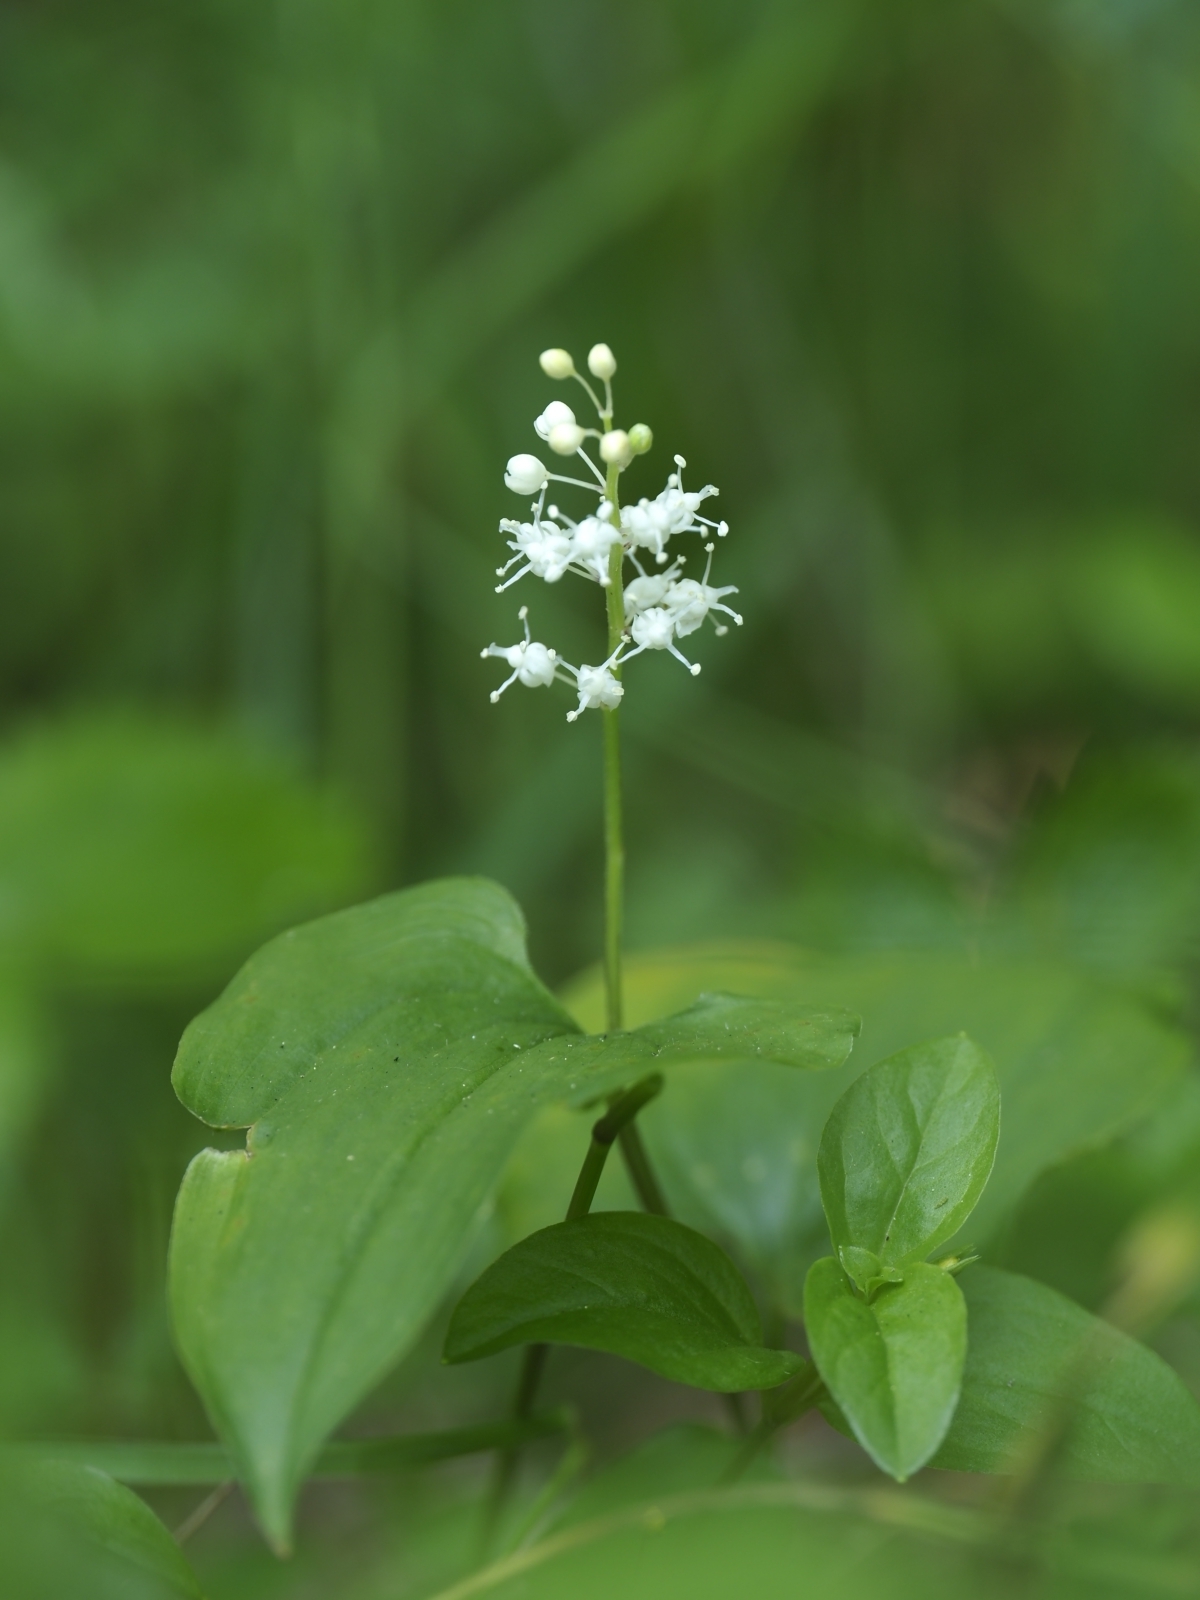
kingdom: Plantae
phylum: Tracheophyta
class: Liliopsida
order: Asparagales
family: Asparagaceae
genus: Maianthemum
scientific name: Maianthemum bifolium
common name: May lily
